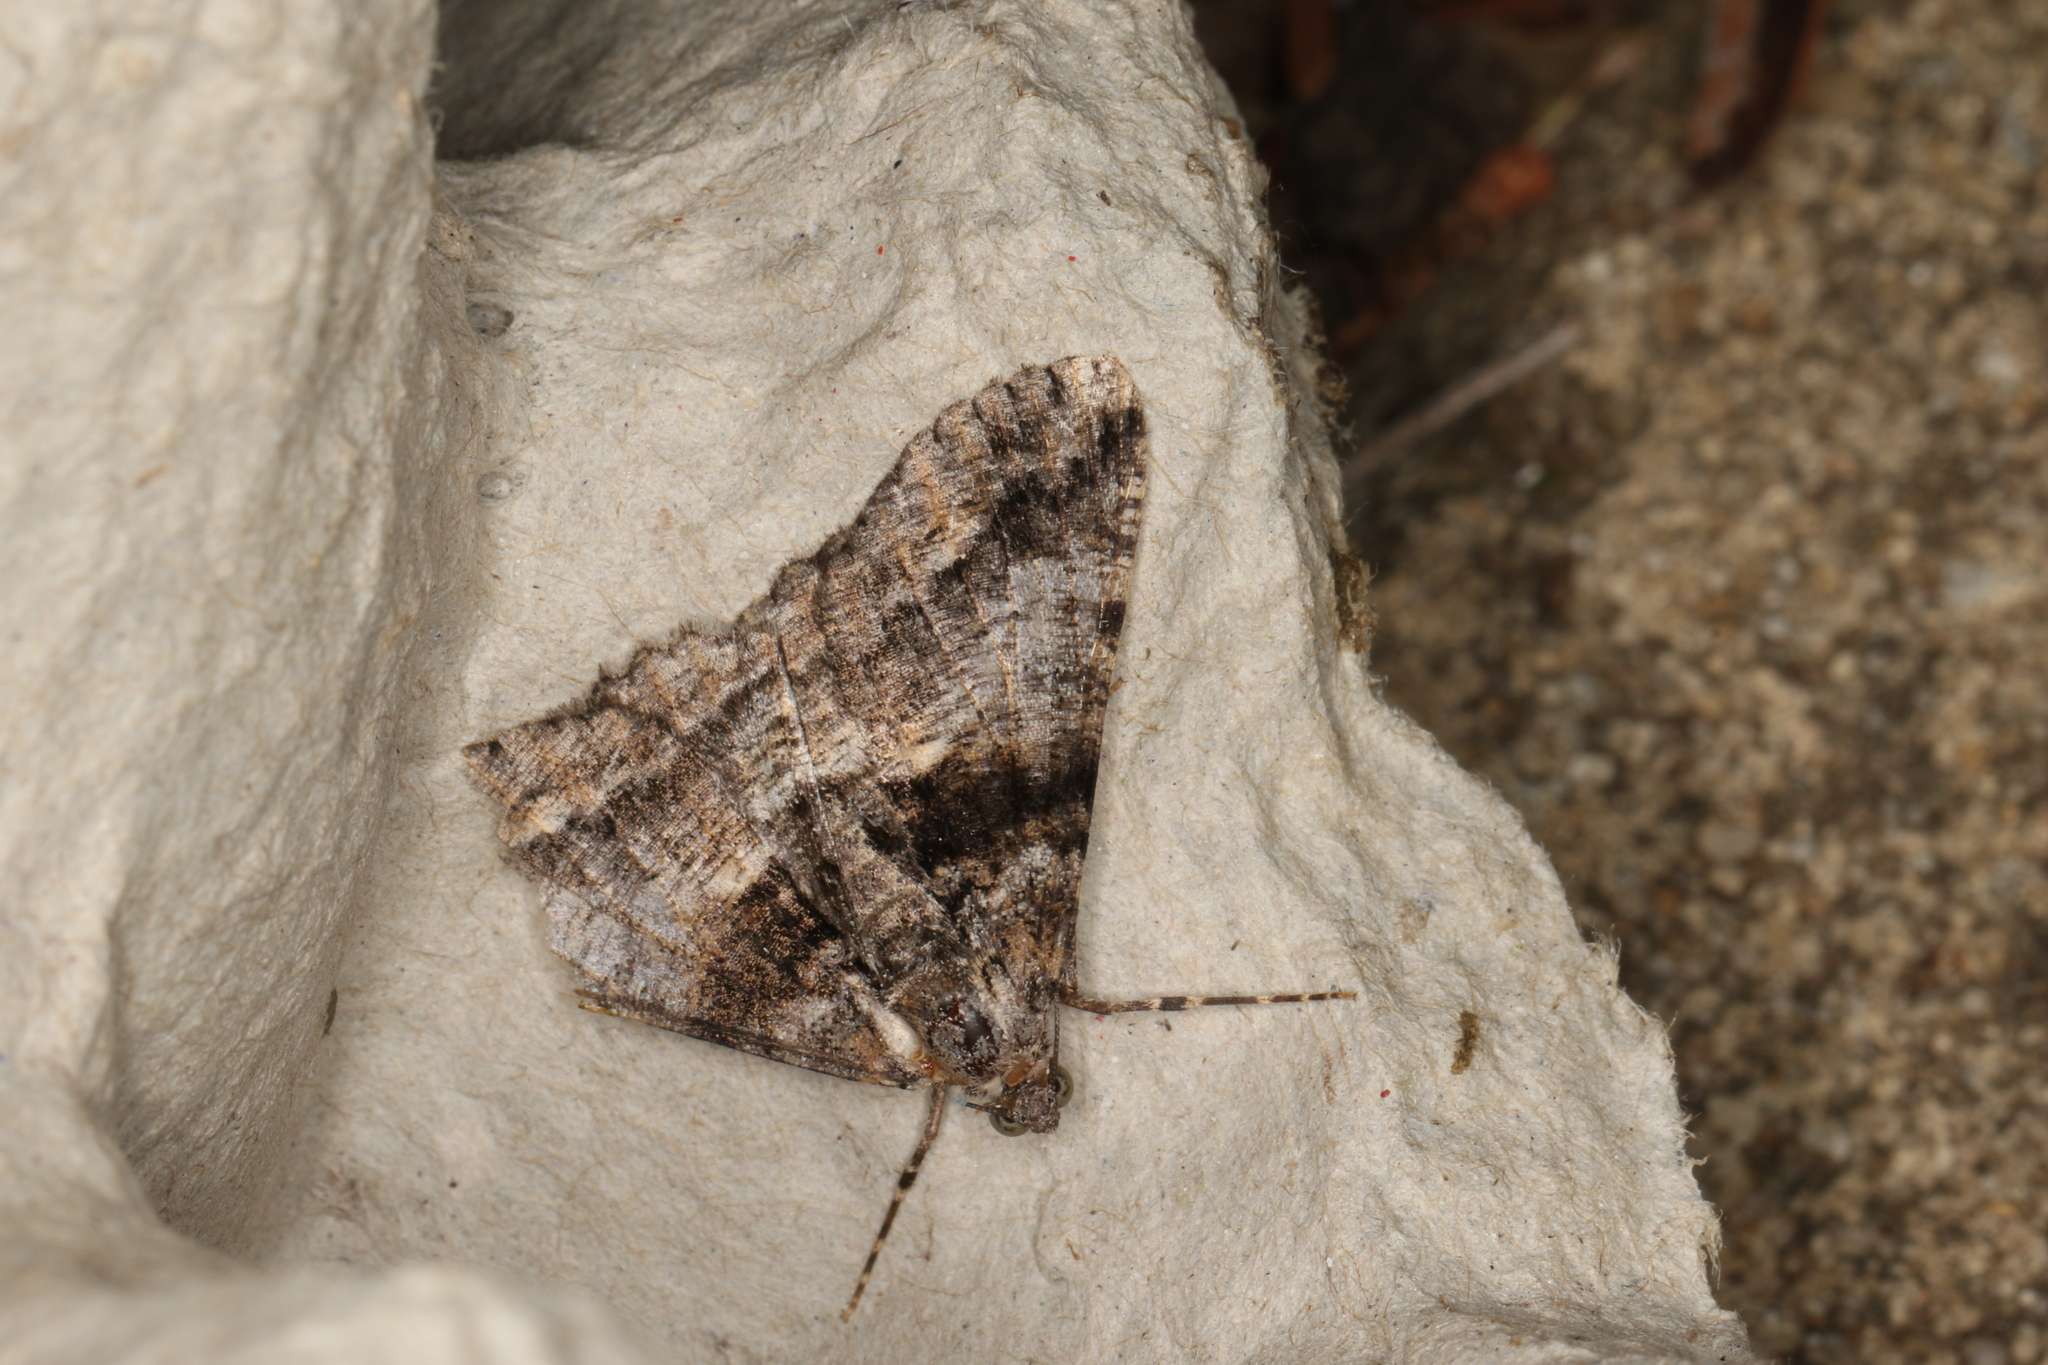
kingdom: Animalia
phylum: Arthropoda
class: Insecta
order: Lepidoptera
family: Geometridae
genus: Gastrinodes
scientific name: Gastrinodes argoplaca
